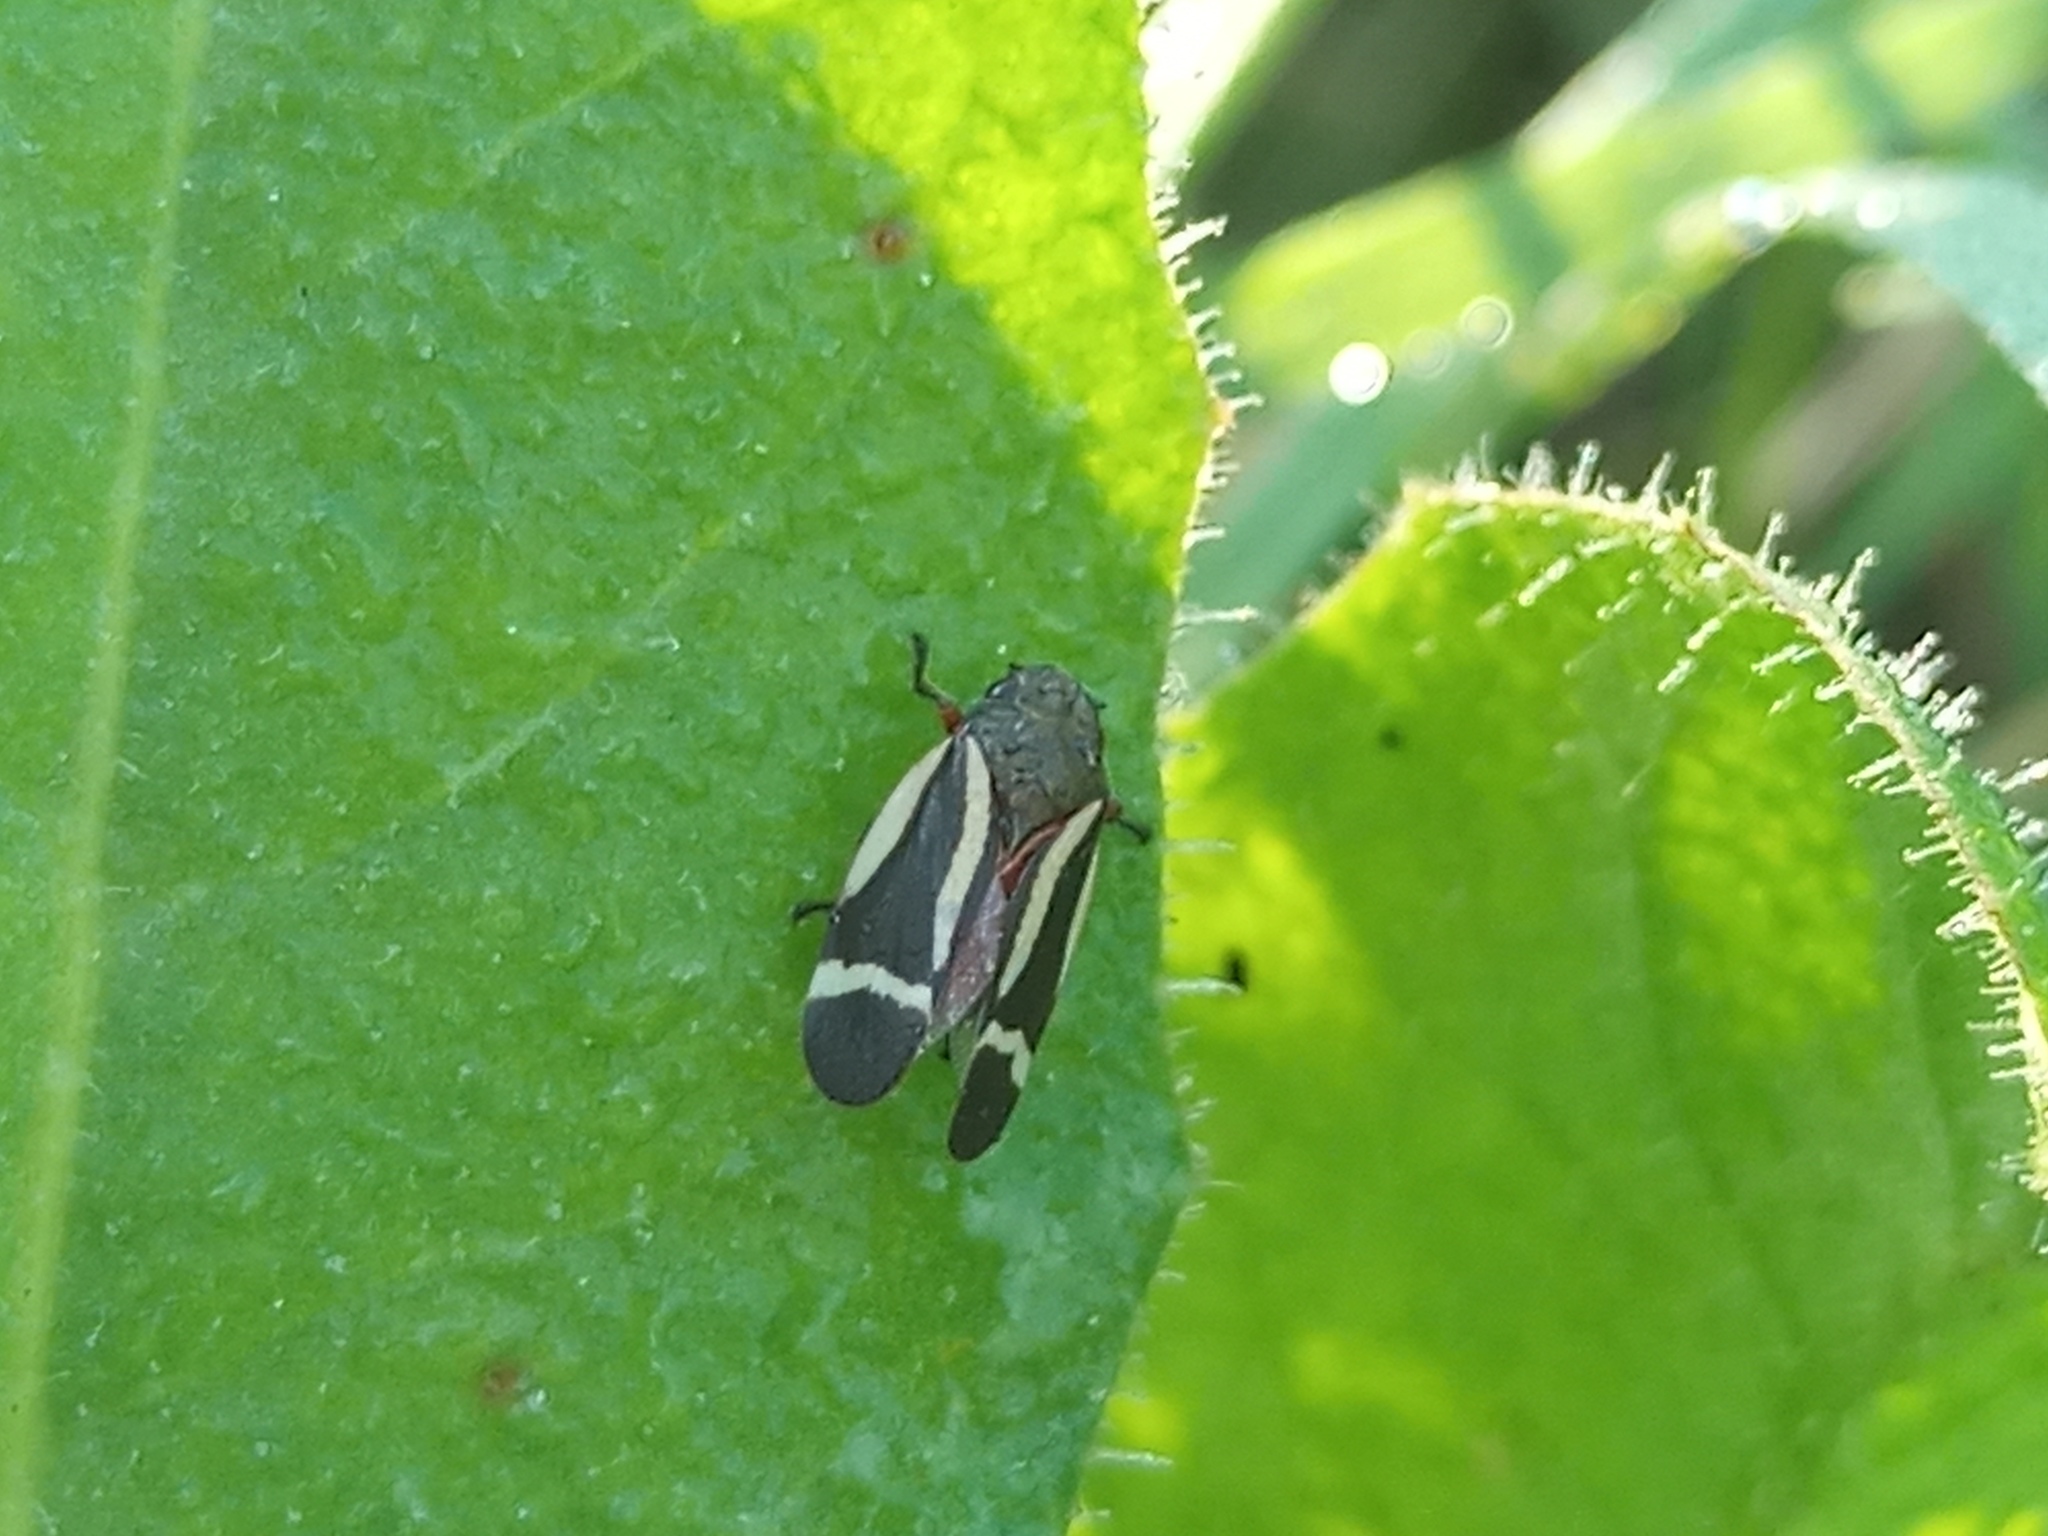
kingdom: Animalia
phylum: Arthropoda
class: Insecta
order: Hemiptera
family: Cercopidae
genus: Notozulia
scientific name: Notozulia entreriana
